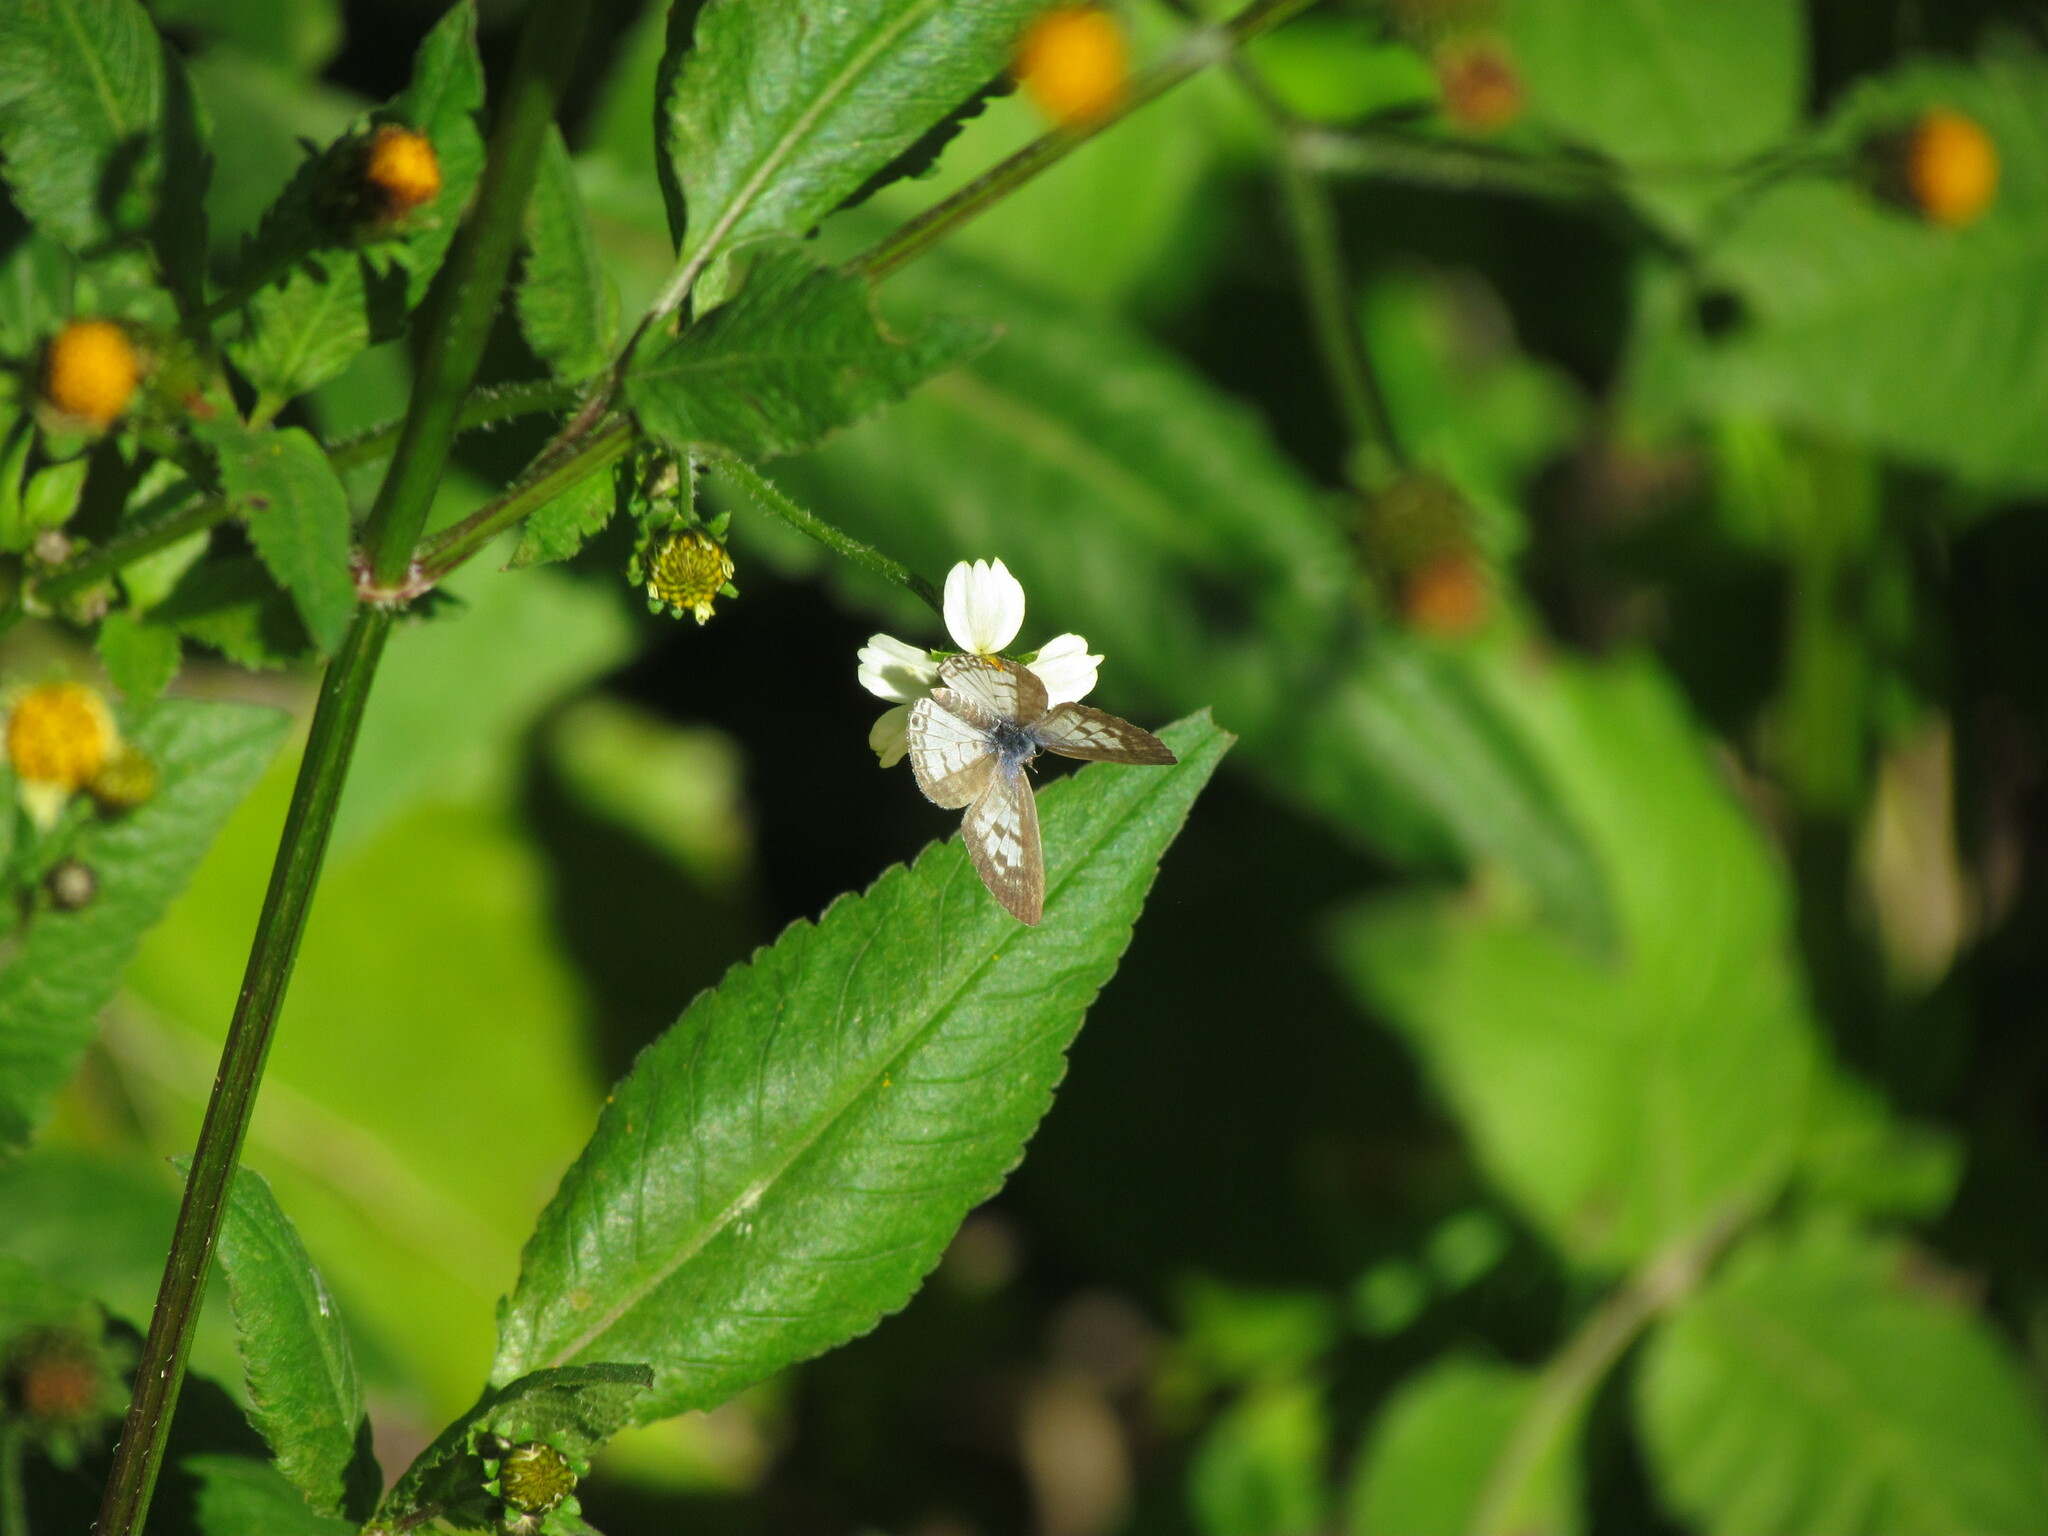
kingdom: Animalia
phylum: Arthropoda
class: Insecta
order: Lepidoptera
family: Lycaenidae
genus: Leptotes
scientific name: Leptotes cassius
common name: Cassius blue
